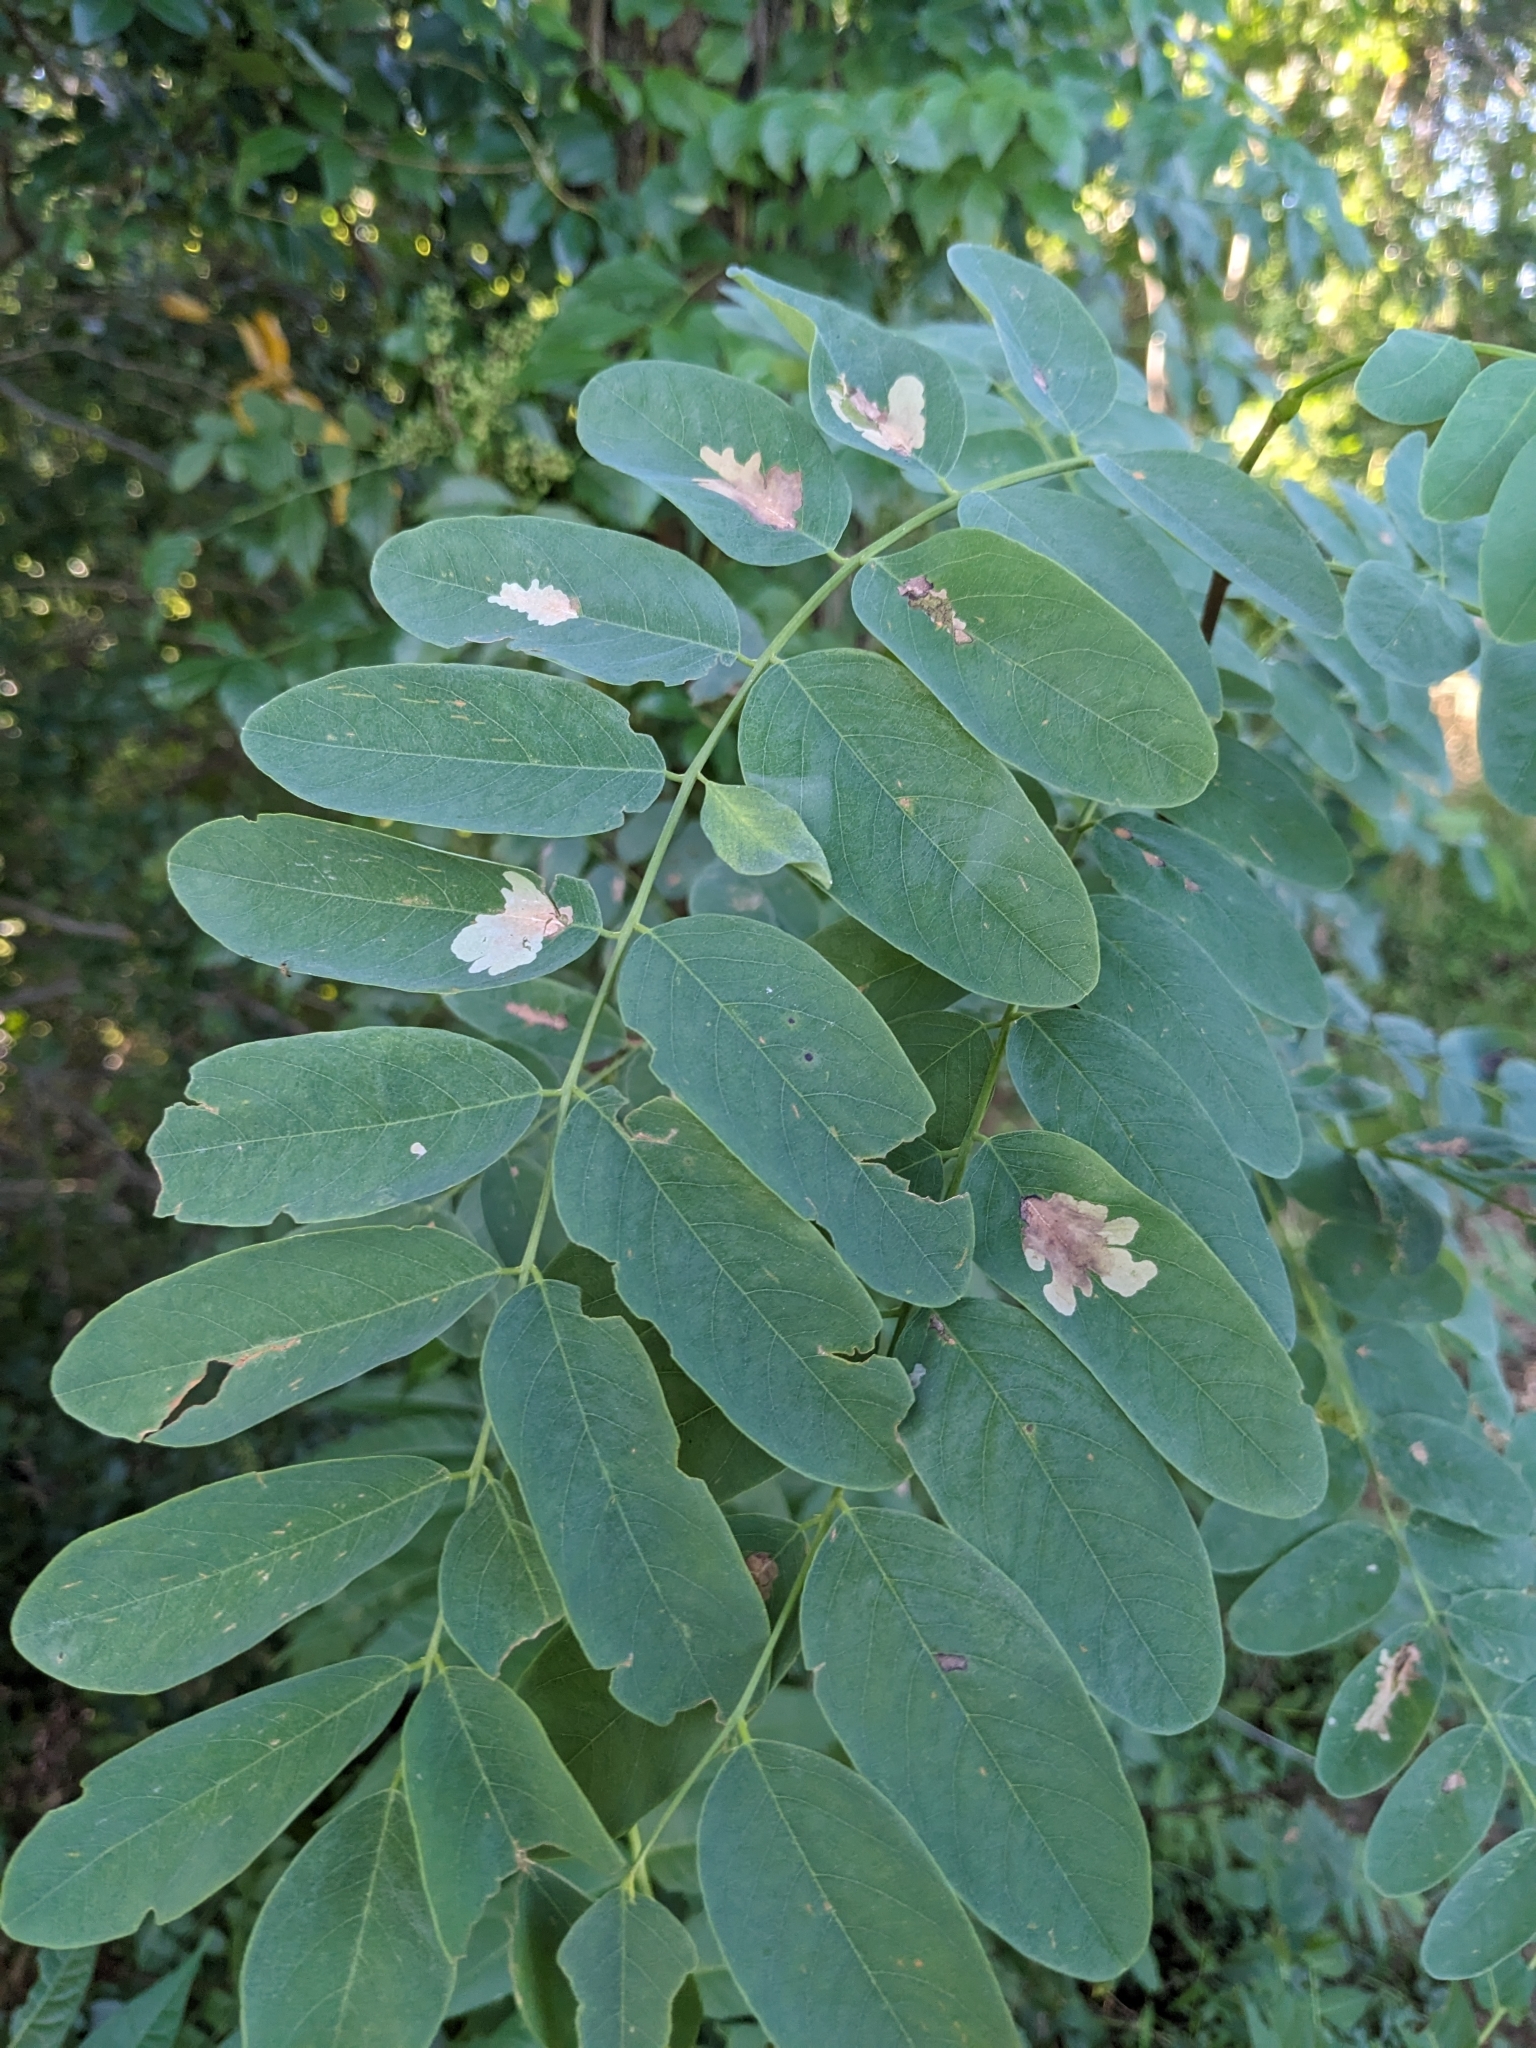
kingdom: Animalia
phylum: Arthropoda
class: Insecta
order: Lepidoptera
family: Gracillariidae
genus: Parectopa
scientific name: Parectopa robiniella
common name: Locust digitate leafminer
